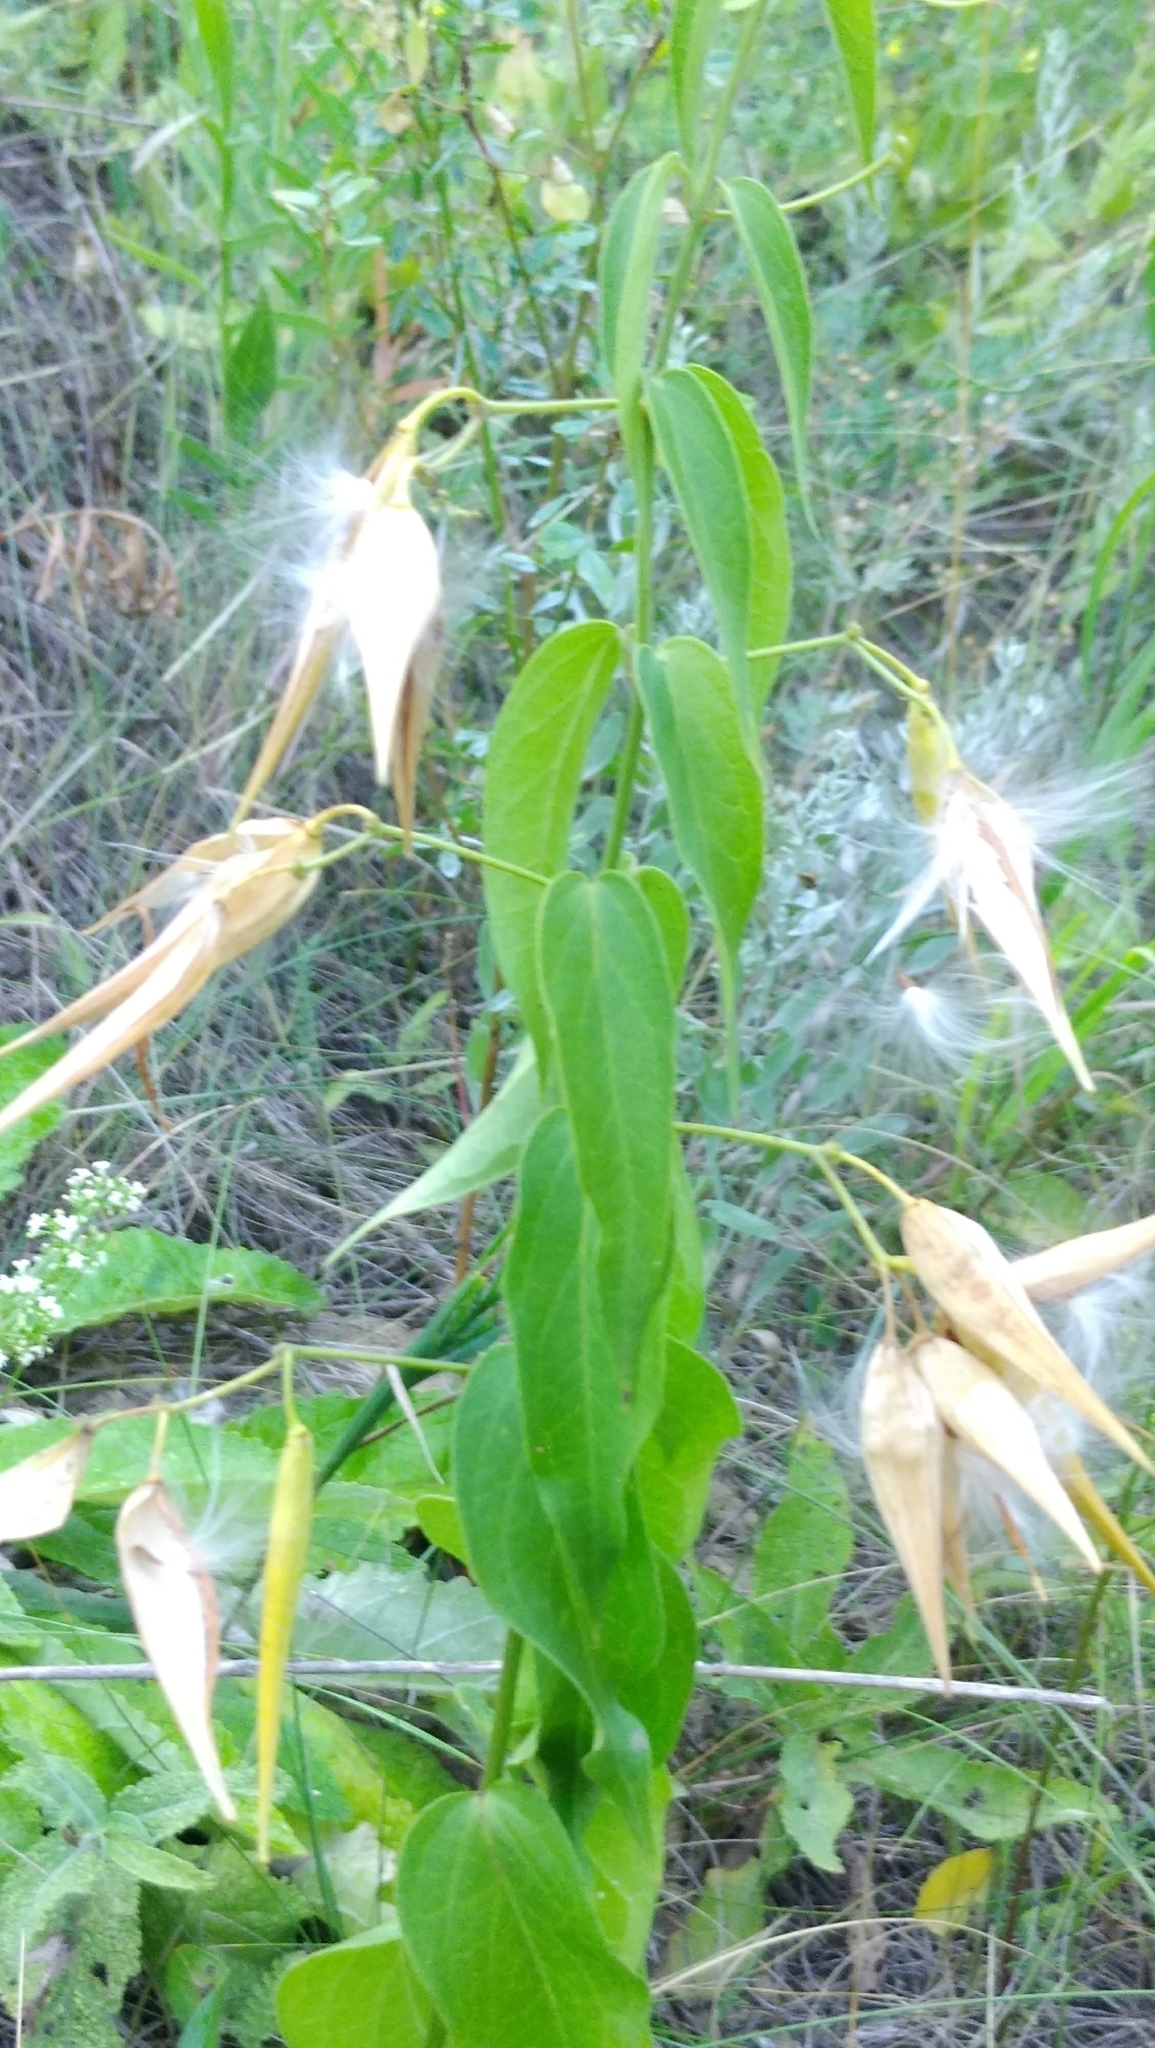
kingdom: Plantae
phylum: Tracheophyta
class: Magnoliopsida
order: Gentianales
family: Apocynaceae
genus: Vincetoxicum
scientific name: Vincetoxicum hirundinaria
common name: White swallowwort
